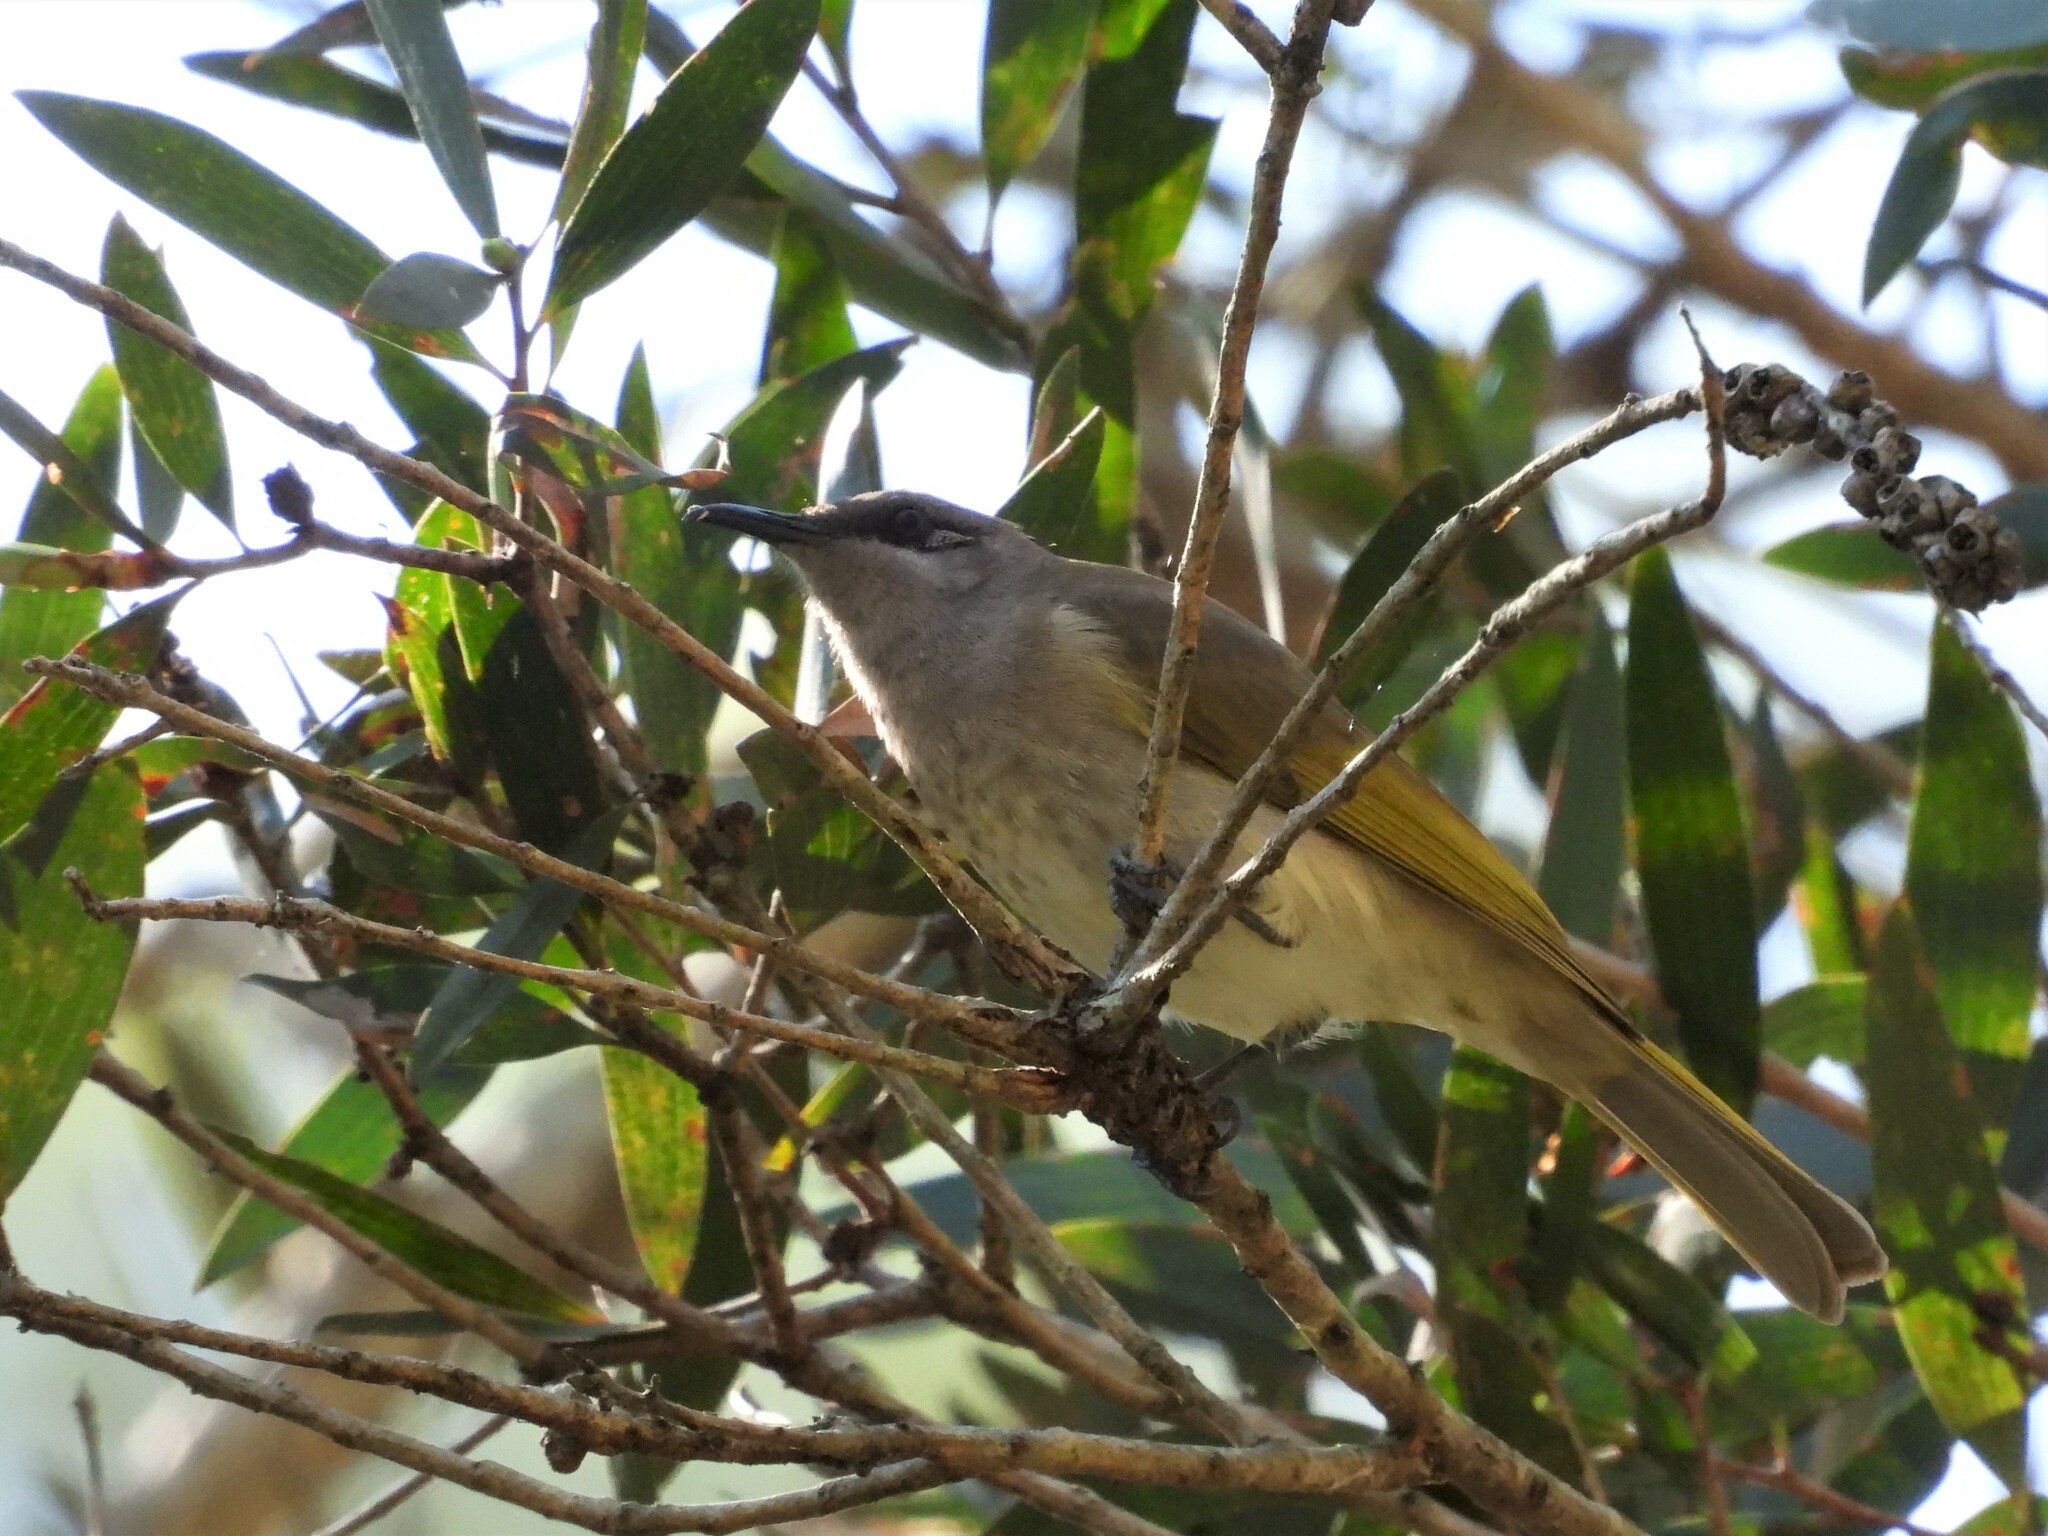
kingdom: Animalia
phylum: Chordata
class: Aves
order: Passeriformes
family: Meliphagidae
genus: Lichmera
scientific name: Lichmera indistincta
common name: Brown honeyeater
